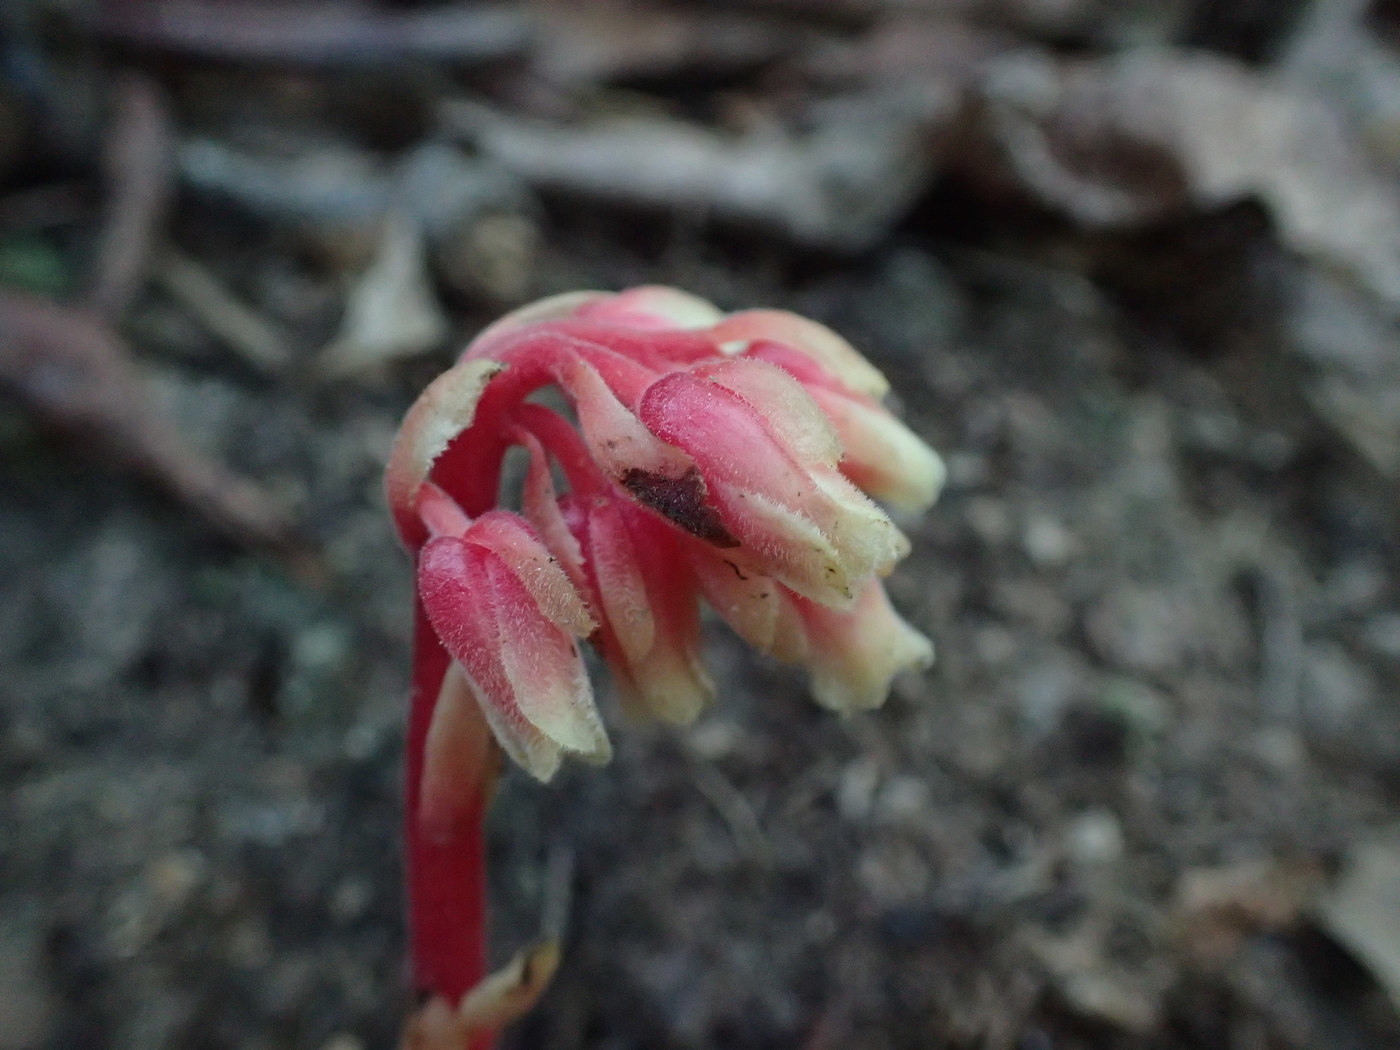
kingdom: Plantae
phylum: Tracheophyta
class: Magnoliopsida
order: Ericales
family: Ericaceae
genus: Hypopitys
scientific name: Hypopitys monotropa
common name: Yellow bird's-nest
